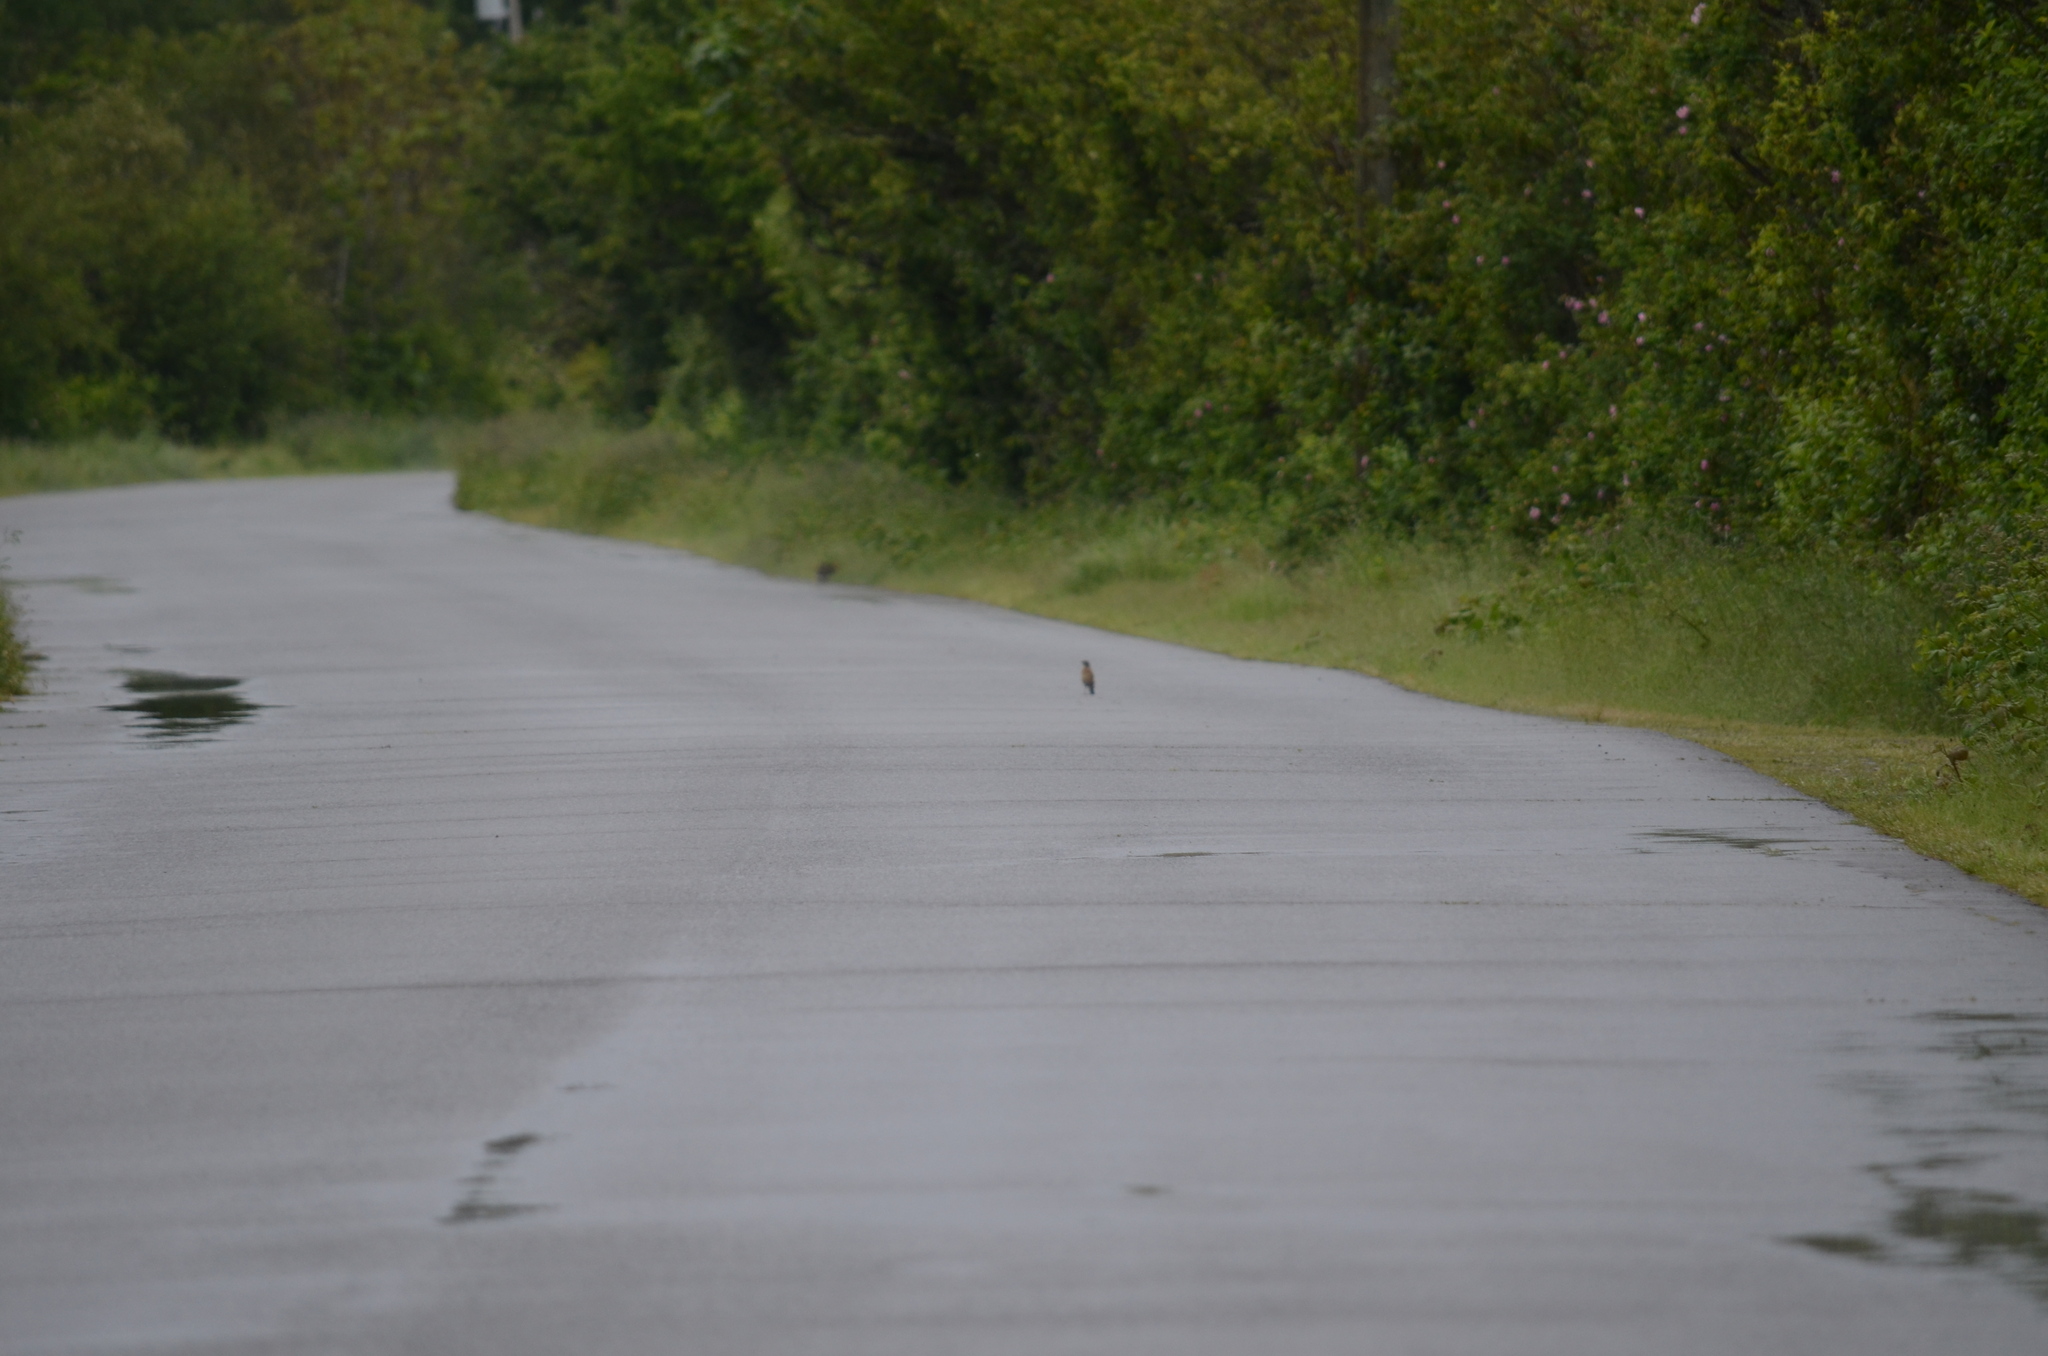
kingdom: Animalia
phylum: Chordata
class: Aves
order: Passeriformes
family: Turdidae
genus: Turdus
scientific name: Turdus migratorius
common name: American robin
